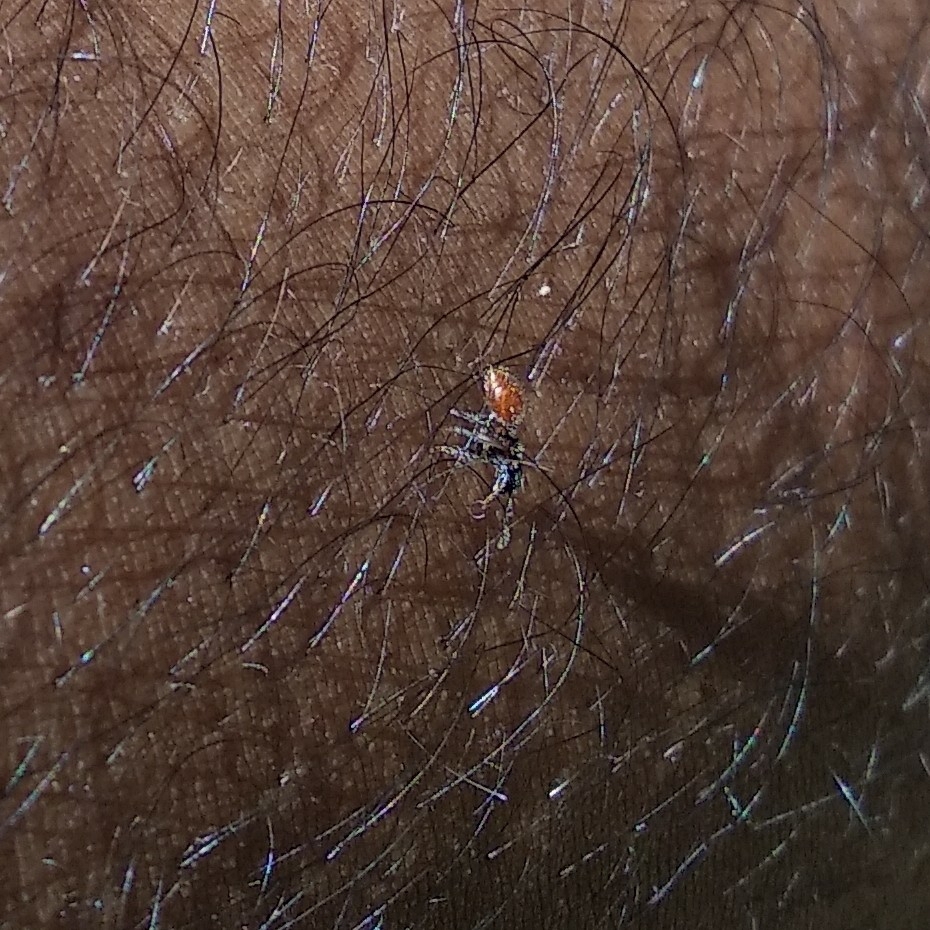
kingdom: Animalia
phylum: Arthropoda
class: Insecta
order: Hymenoptera
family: Formicidae
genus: Meranoplus
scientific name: Meranoplus bellii
